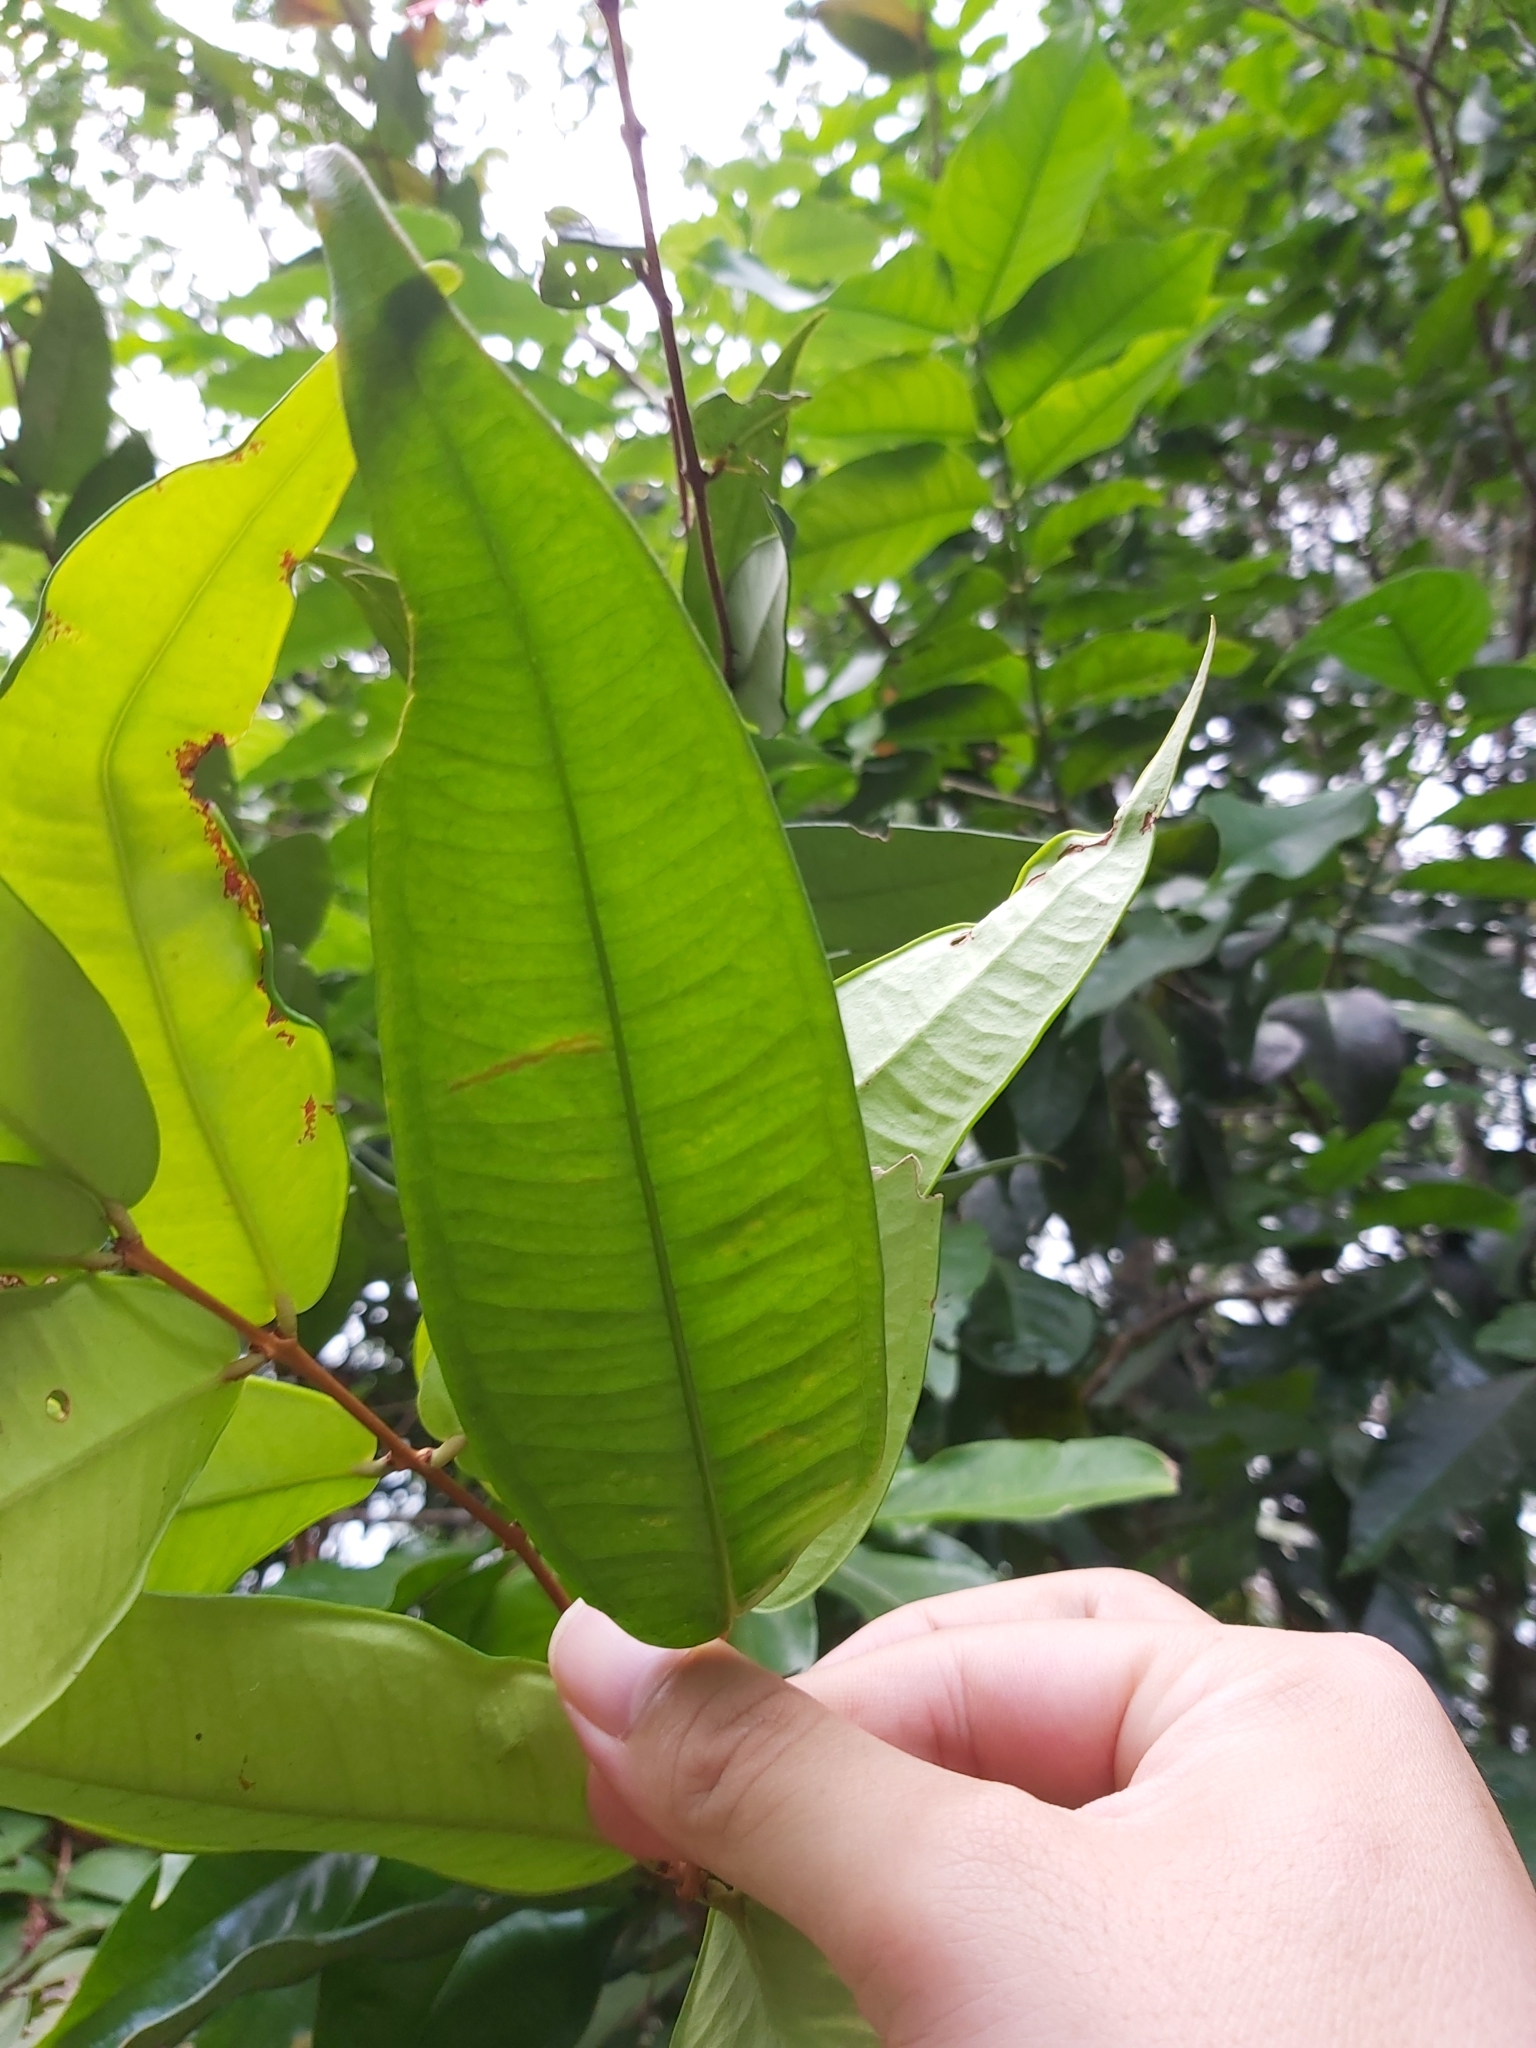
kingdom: Plantae
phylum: Tracheophyta
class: Magnoliopsida
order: Myrtales
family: Myrtaceae
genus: Syzygium
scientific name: Syzygium wilsonii
